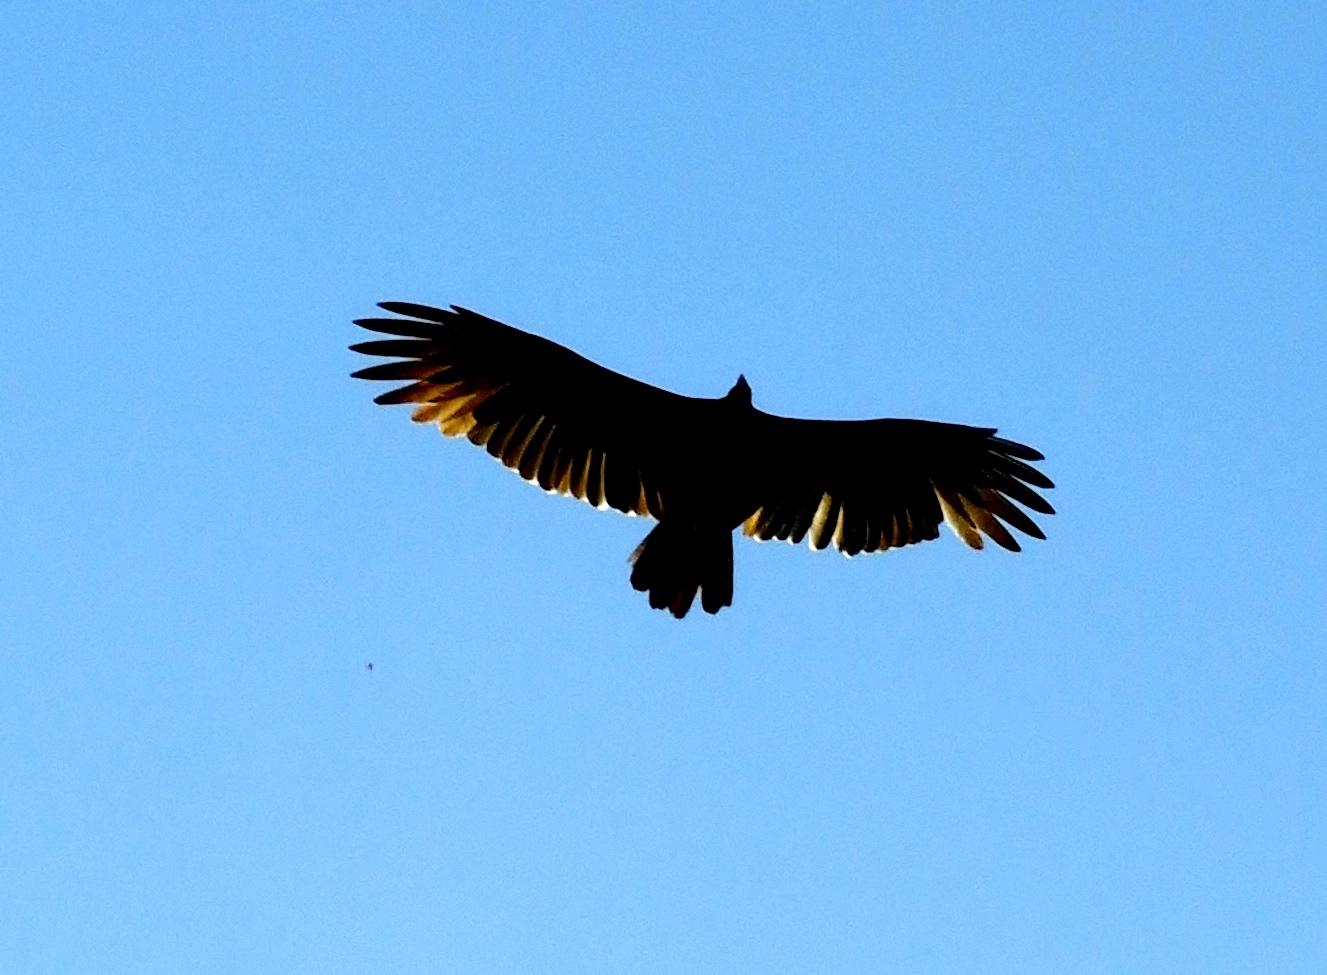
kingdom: Animalia
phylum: Chordata
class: Aves
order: Accipitriformes
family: Cathartidae
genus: Cathartes
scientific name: Cathartes aura
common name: Turkey vulture
